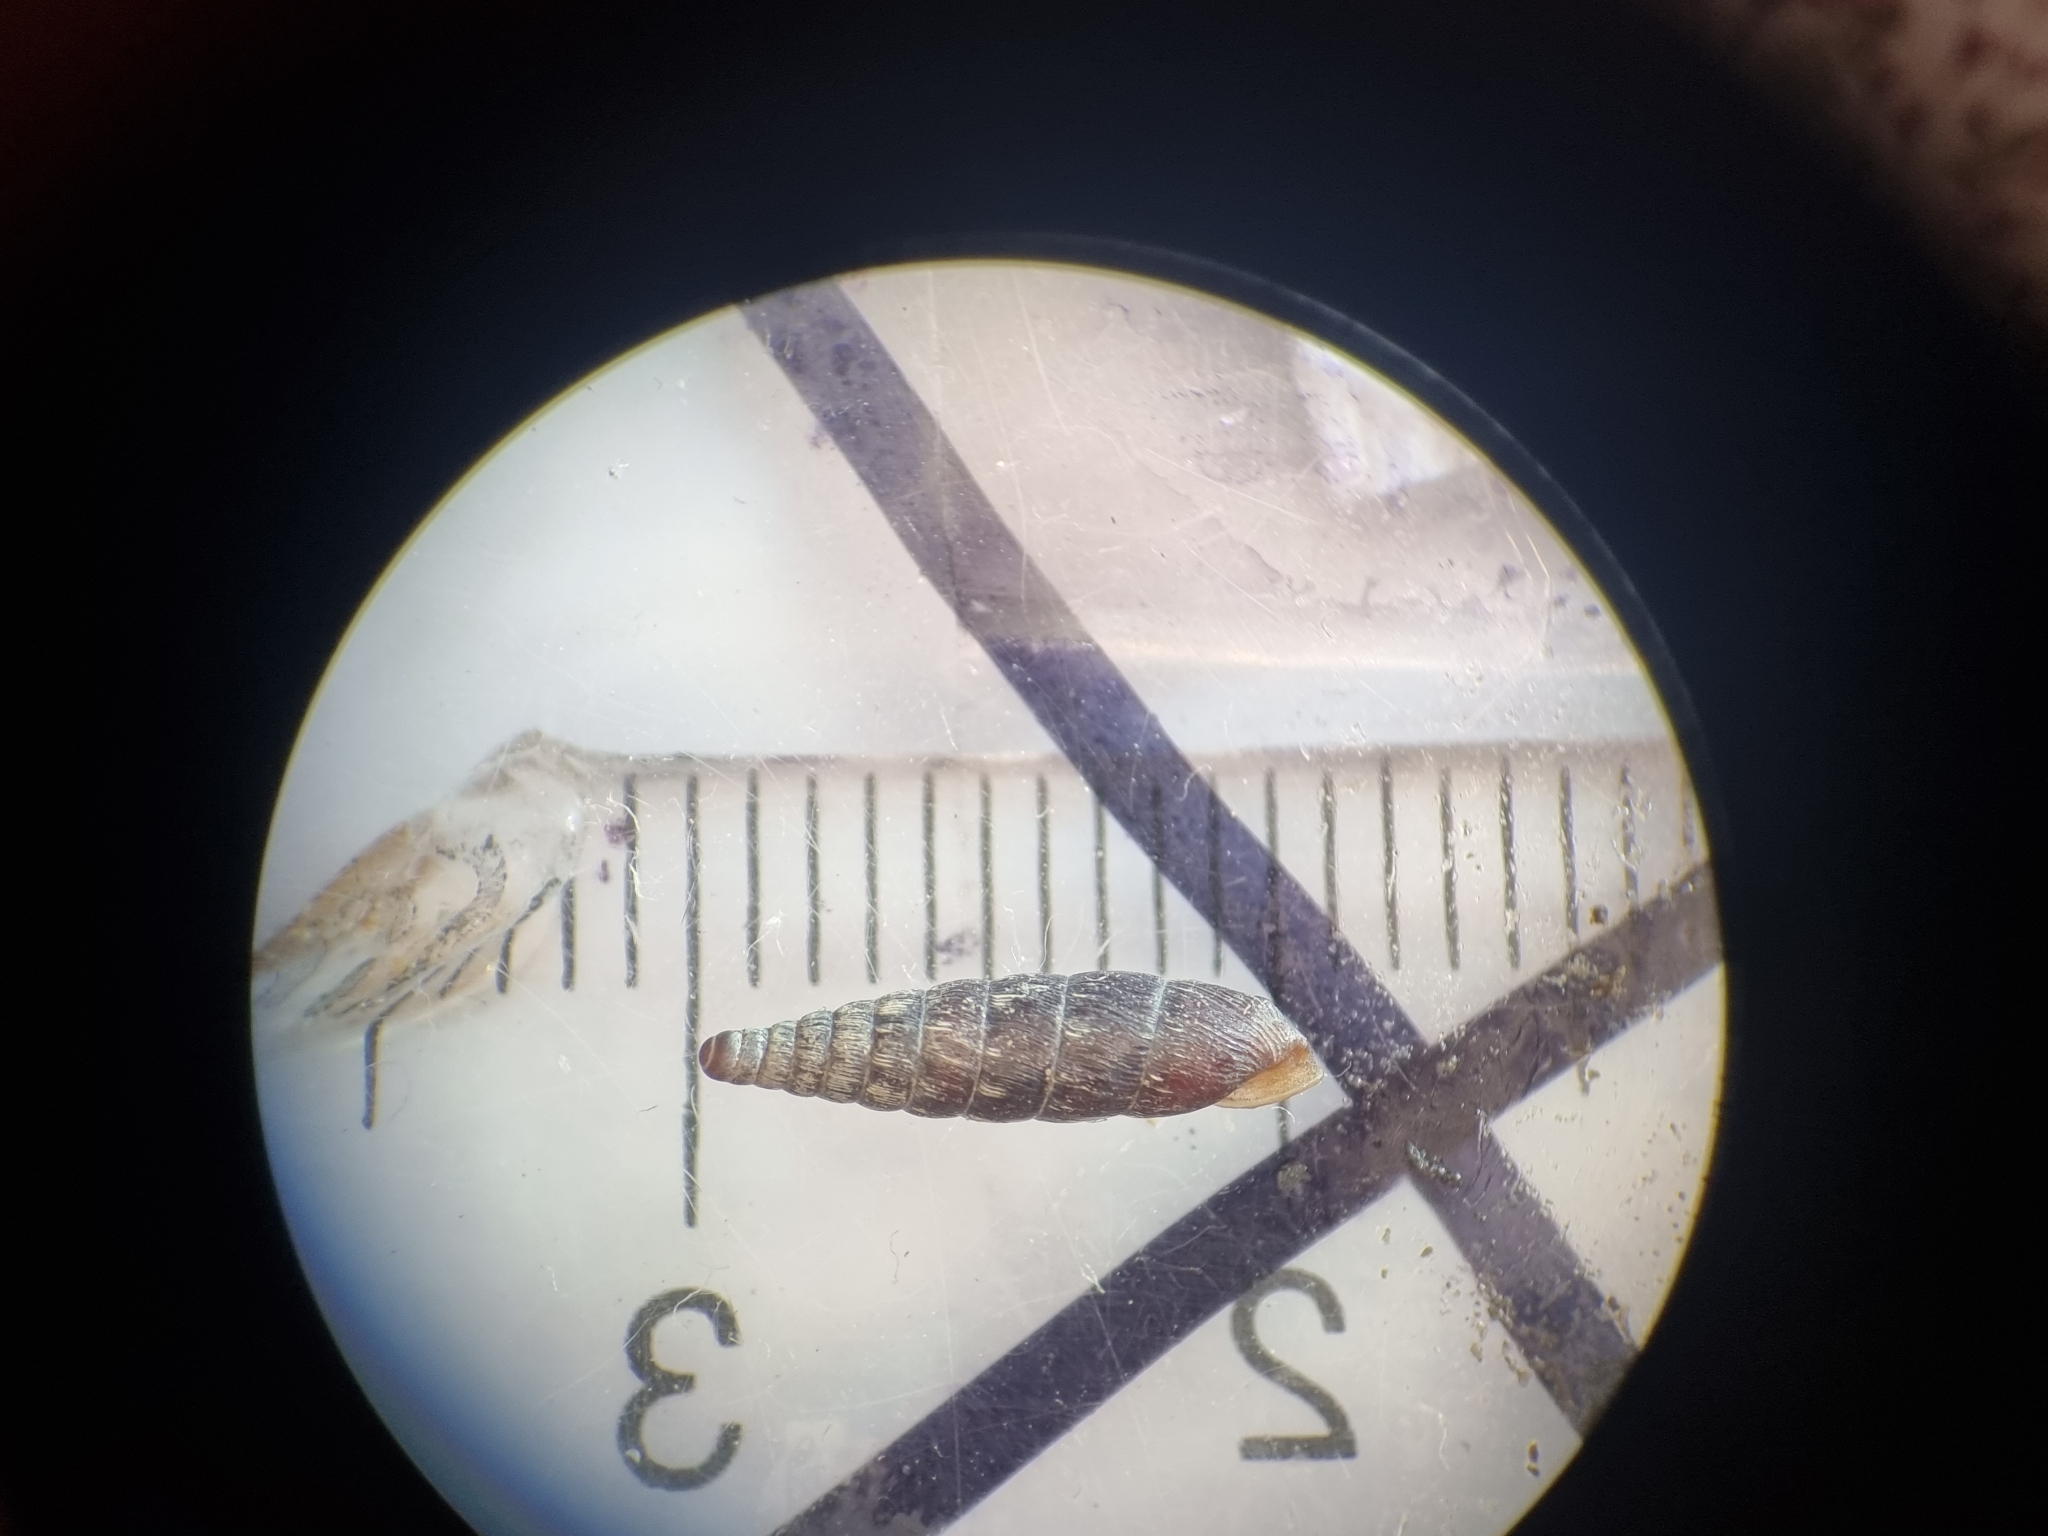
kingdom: Animalia
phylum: Mollusca
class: Gastropoda
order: Stylommatophora
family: Clausiliidae
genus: Clausilia
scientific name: Clausilia bidentata
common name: Two-toothed door snail
